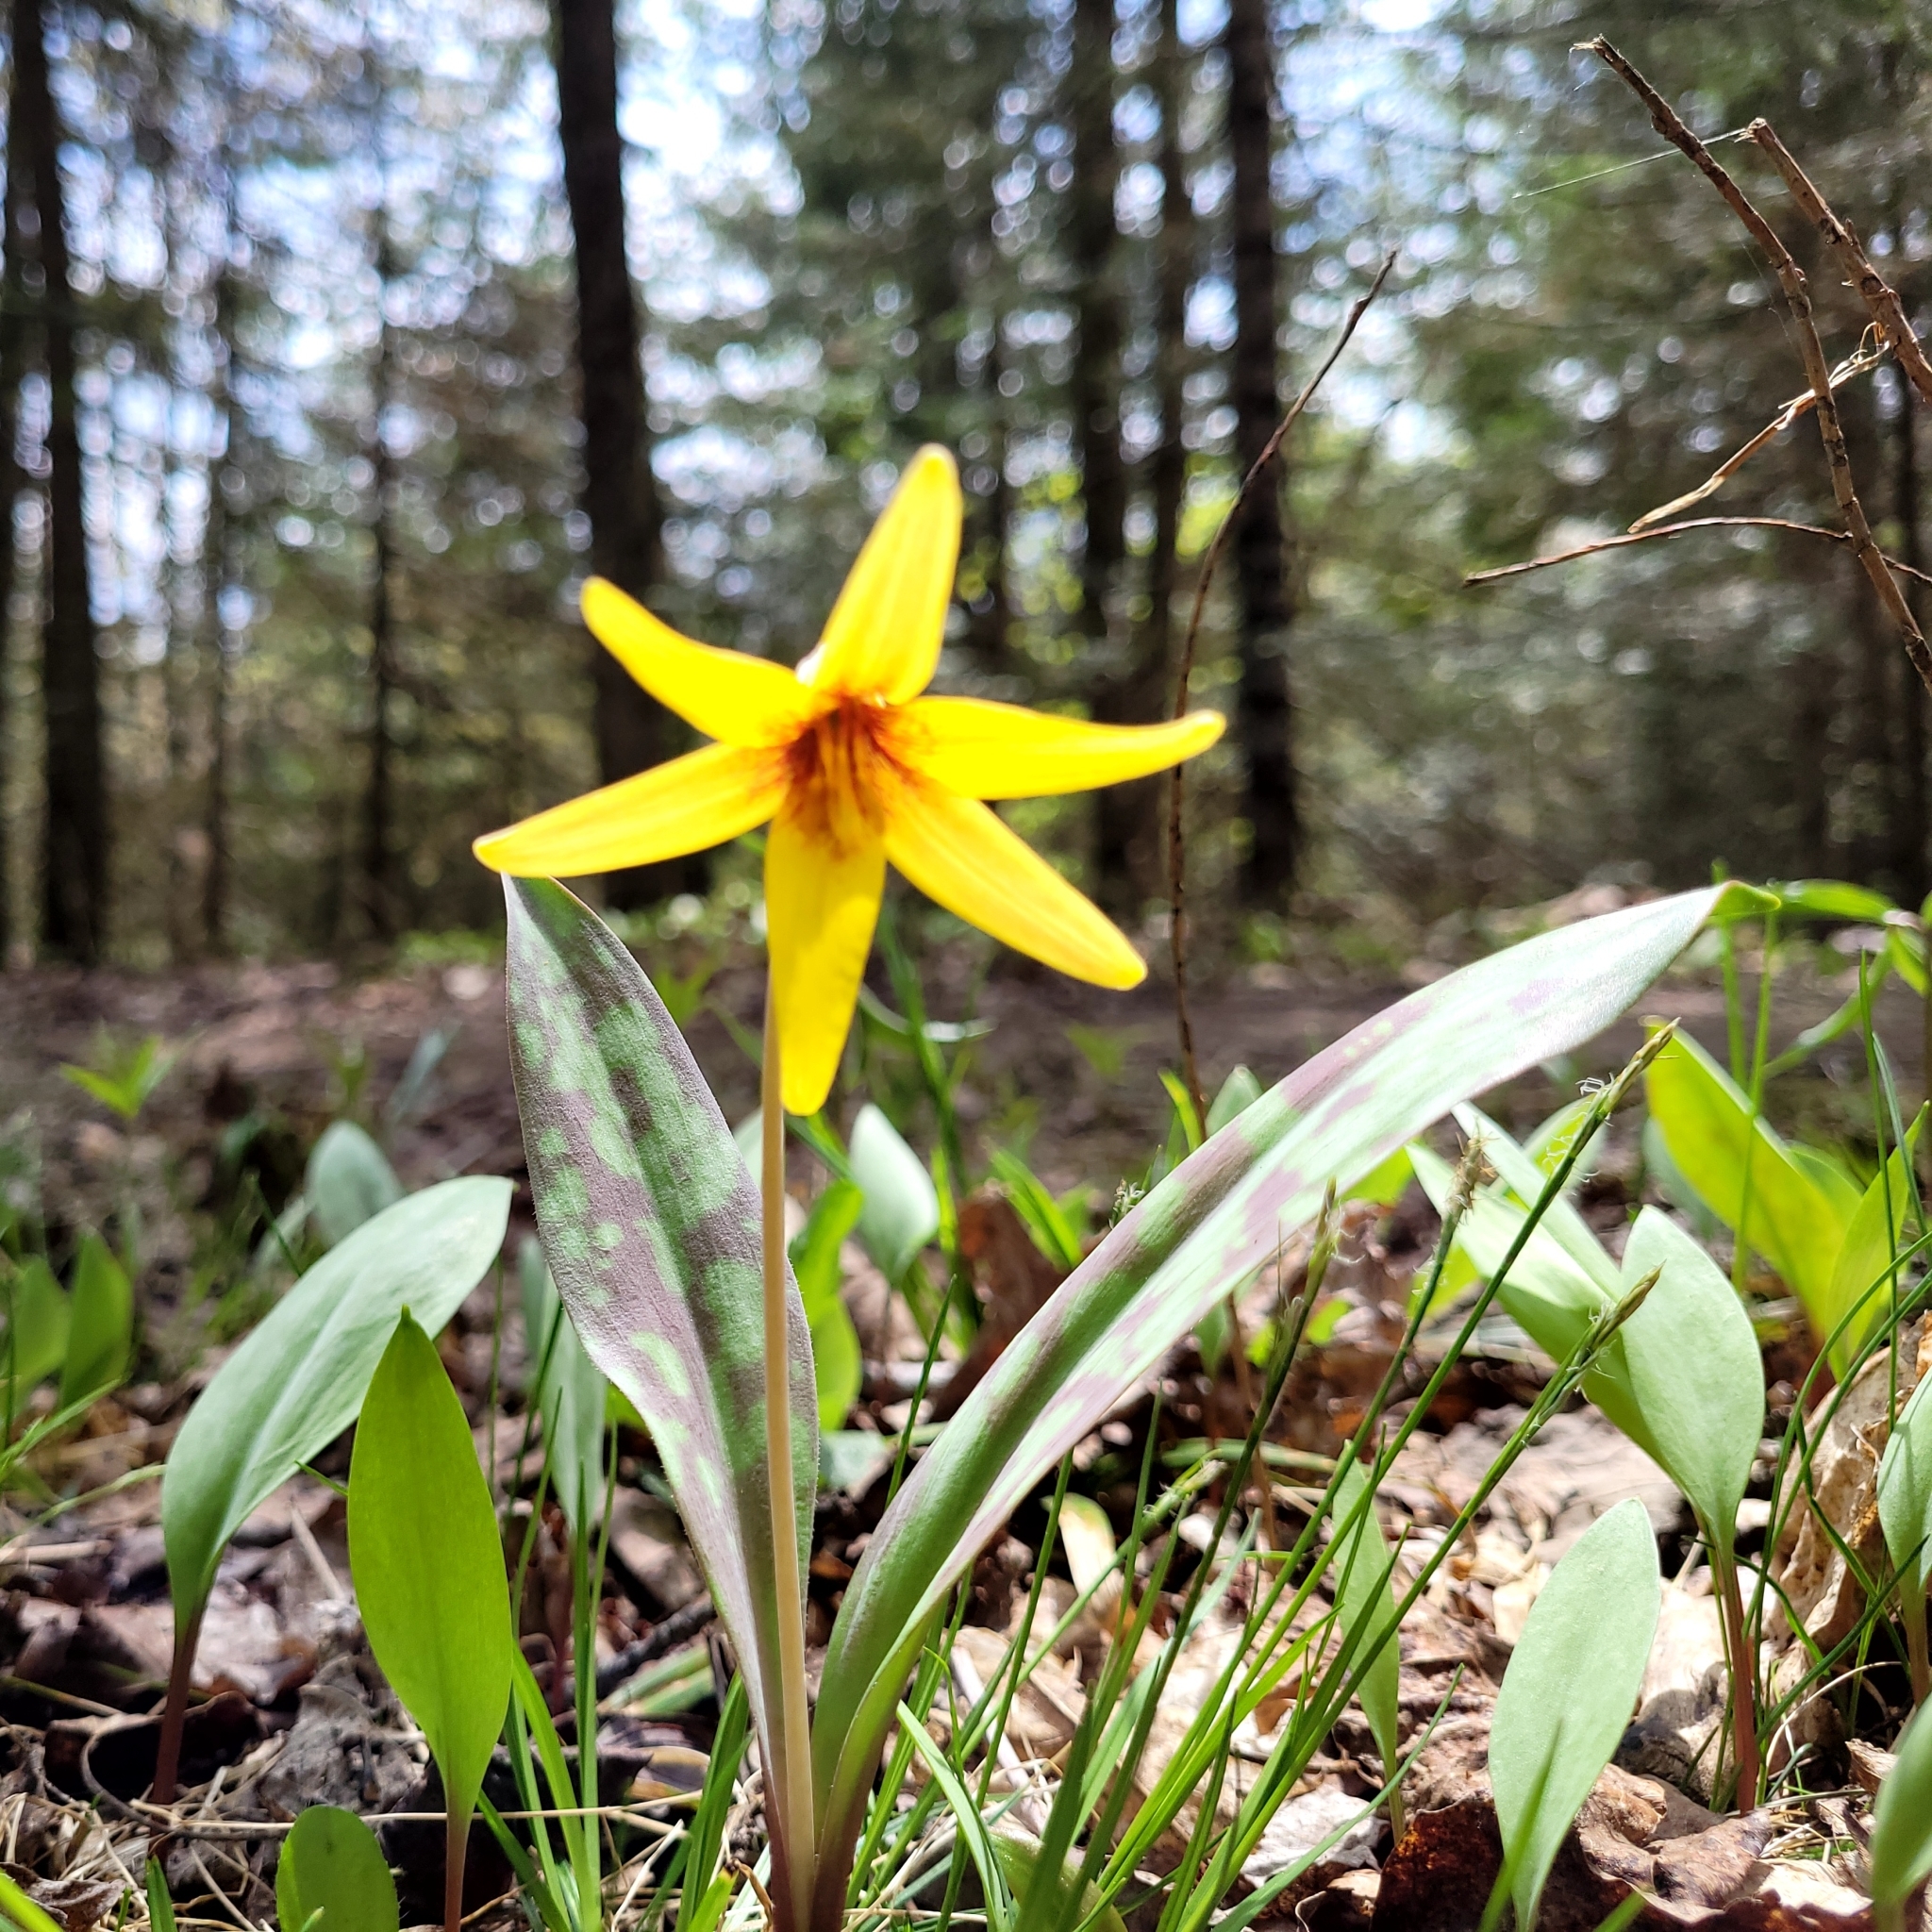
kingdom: Plantae
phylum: Tracheophyta
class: Liliopsida
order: Liliales
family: Liliaceae
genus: Erythronium
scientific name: Erythronium americanum
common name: Yellow adder's-tongue
